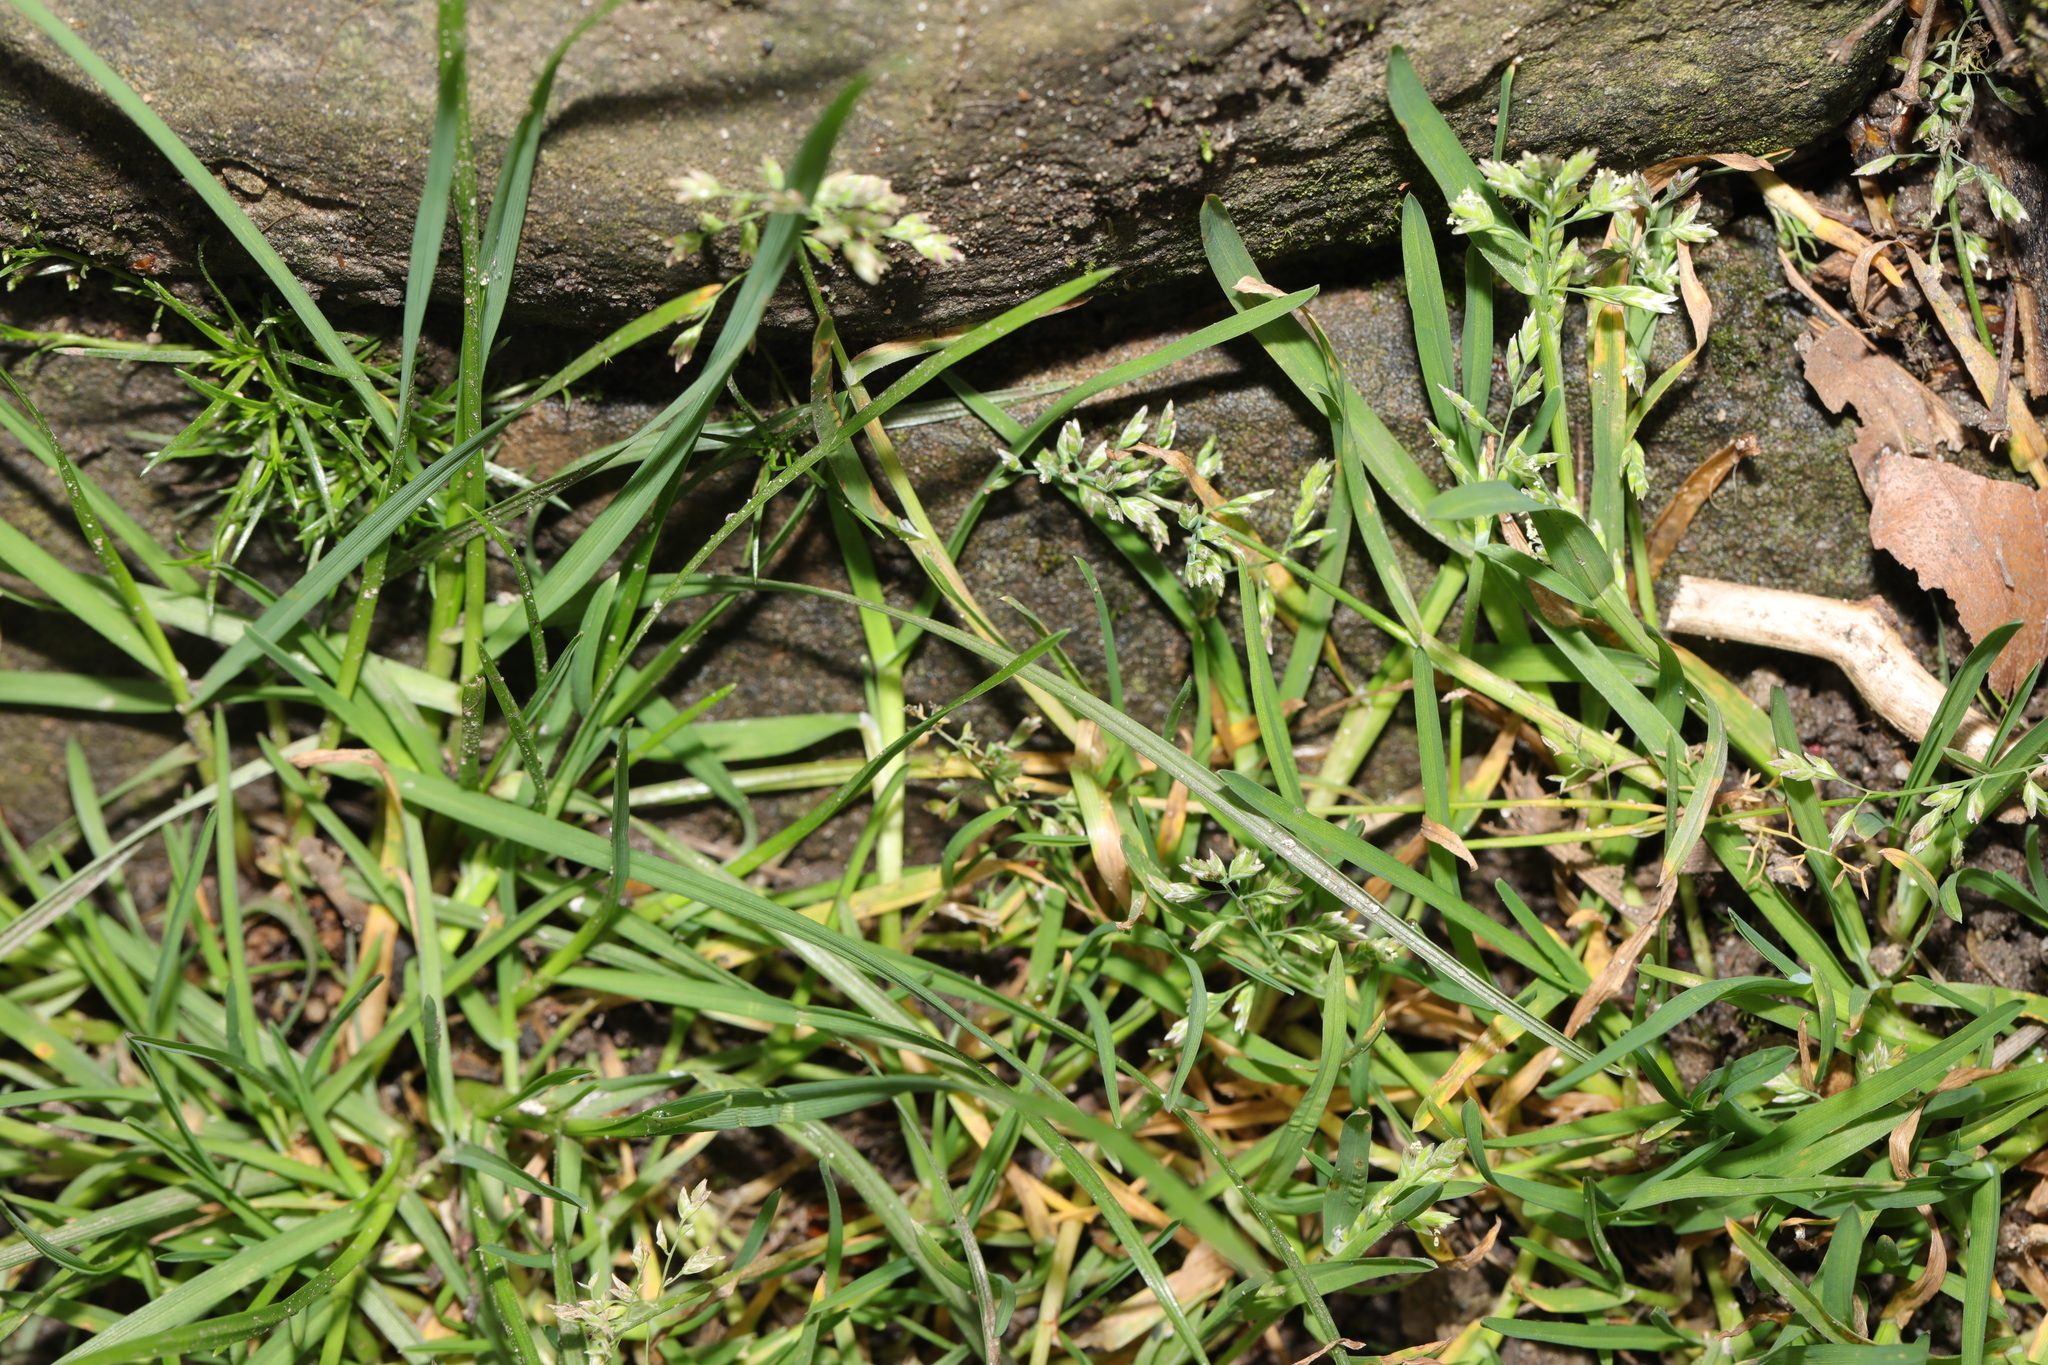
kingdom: Plantae
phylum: Tracheophyta
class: Liliopsida
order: Poales
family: Poaceae
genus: Poa
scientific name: Poa annua
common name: Annual bluegrass
